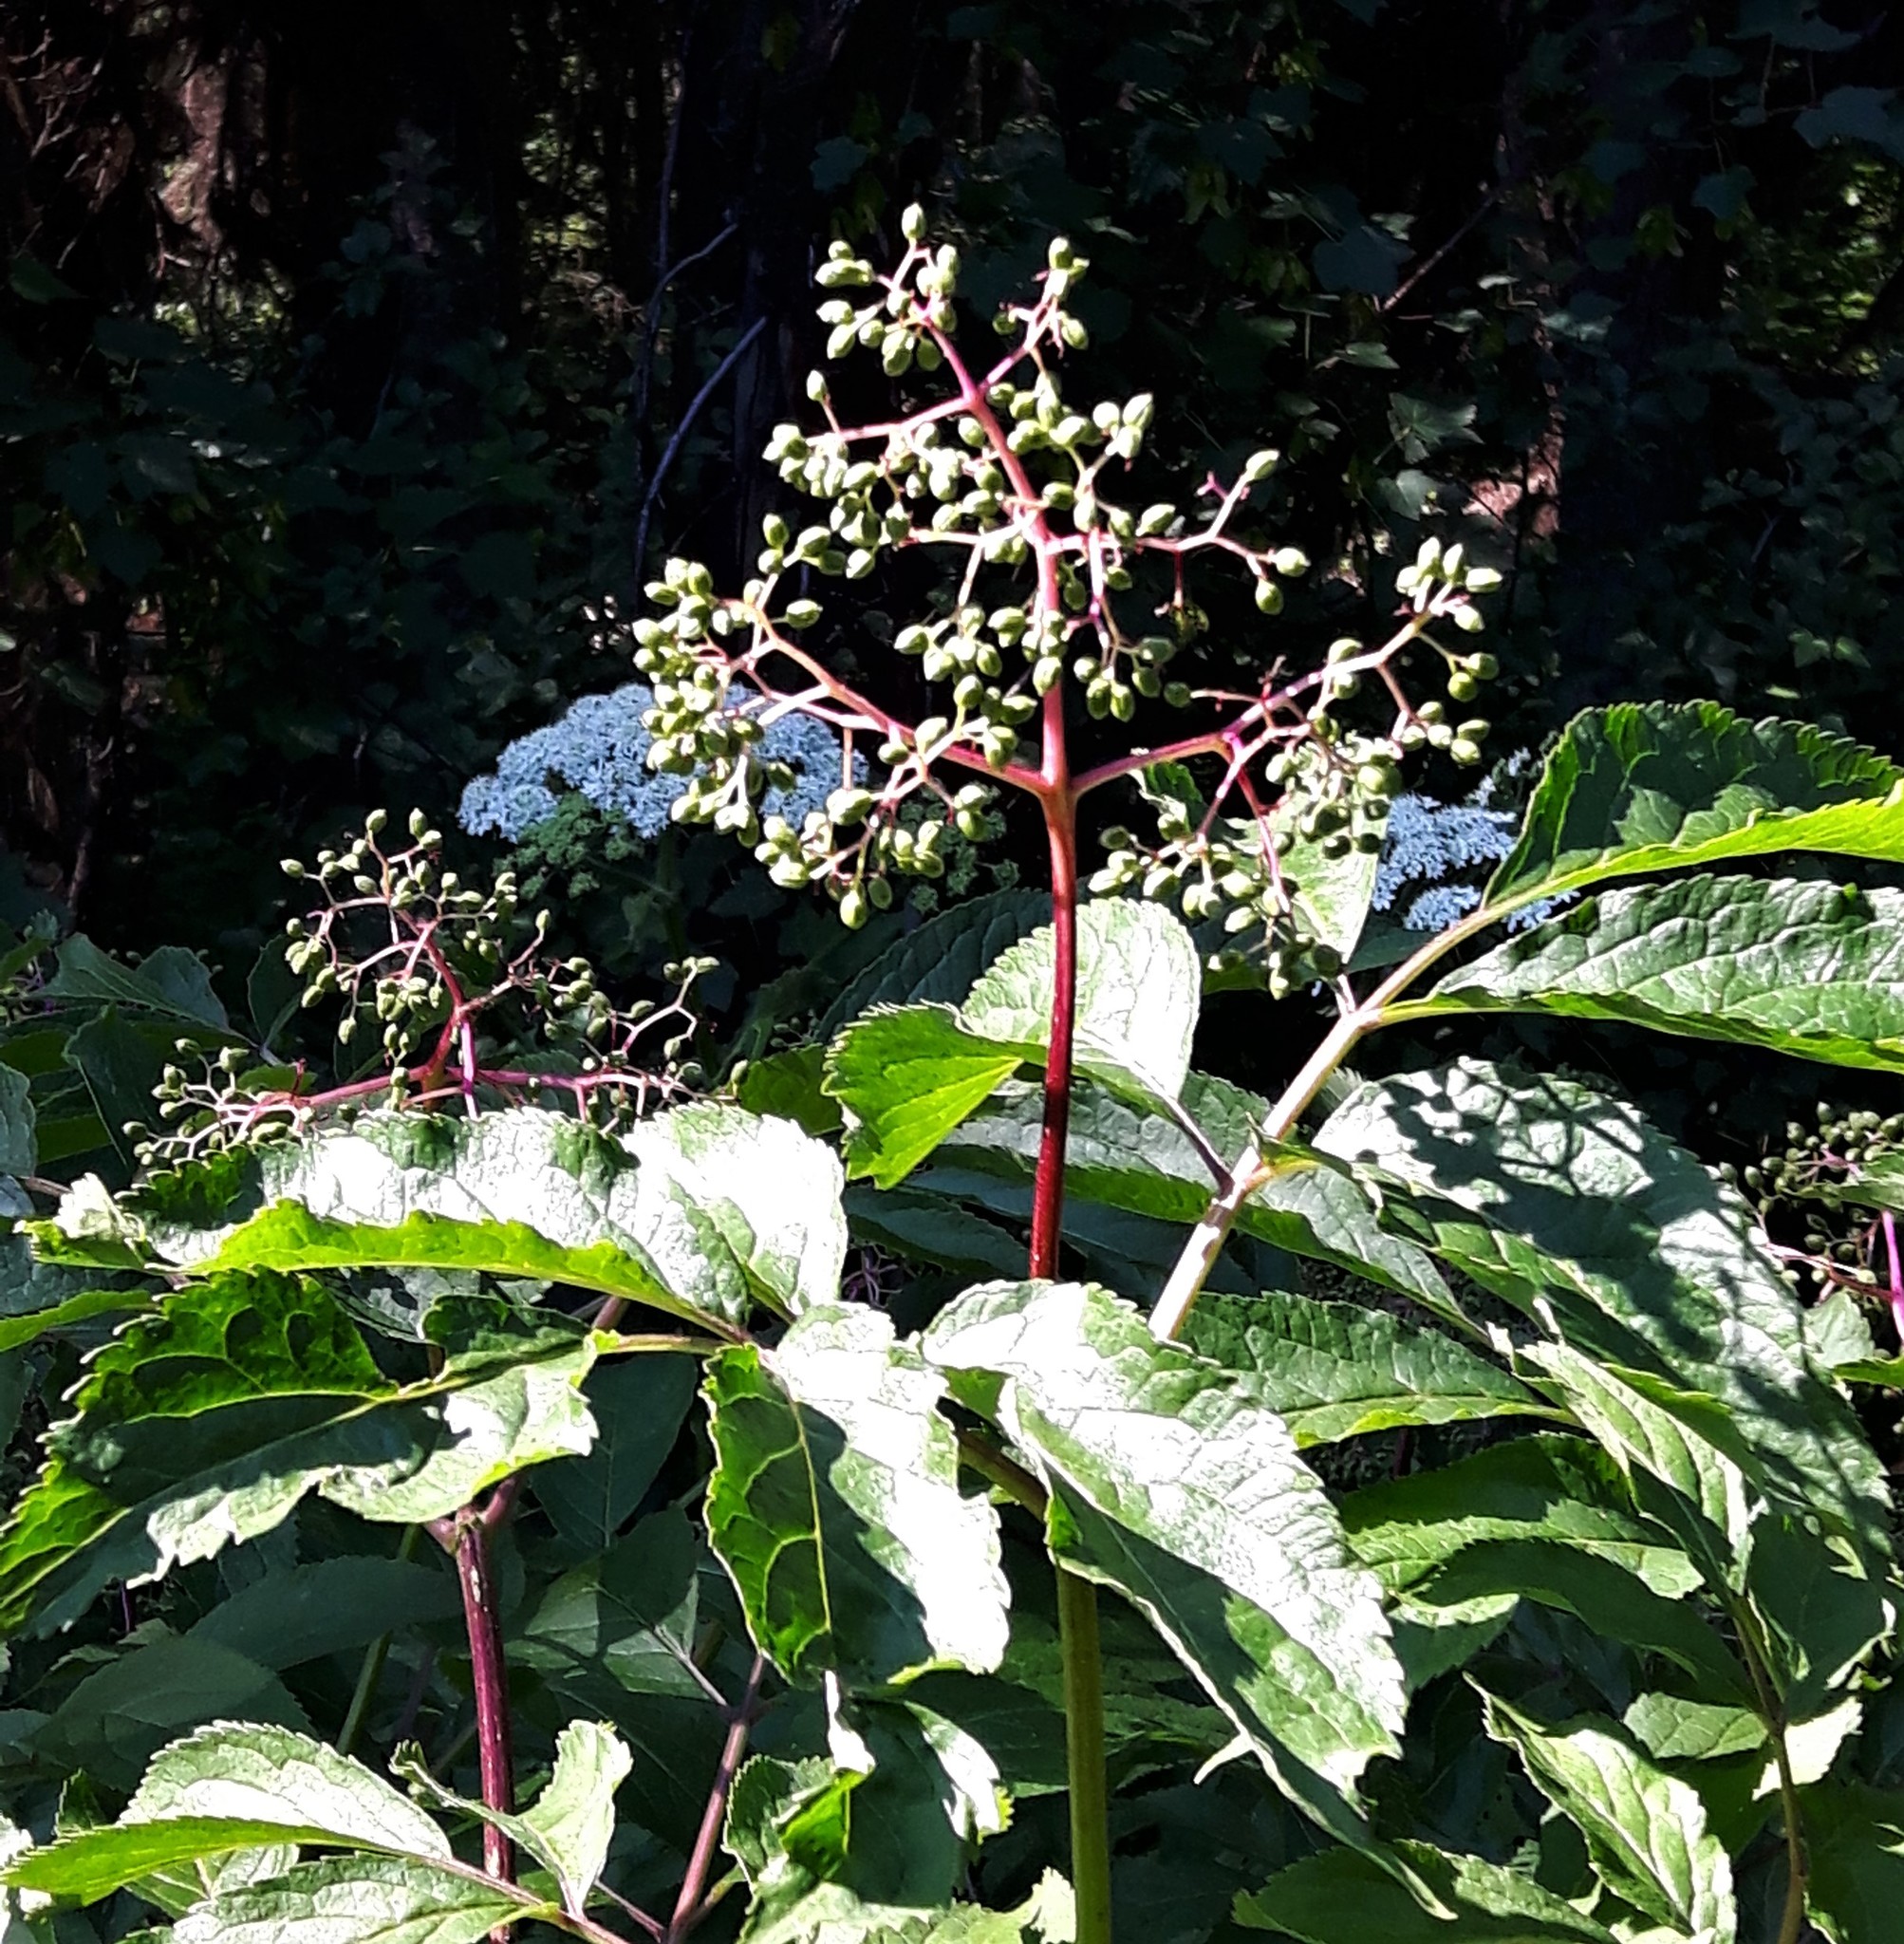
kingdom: Plantae
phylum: Tracheophyta
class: Magnoliopsida
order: Dipsacales
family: Viburnaceae
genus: Sambucus
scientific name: Sambucus racemosa
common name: Red-berried elder
